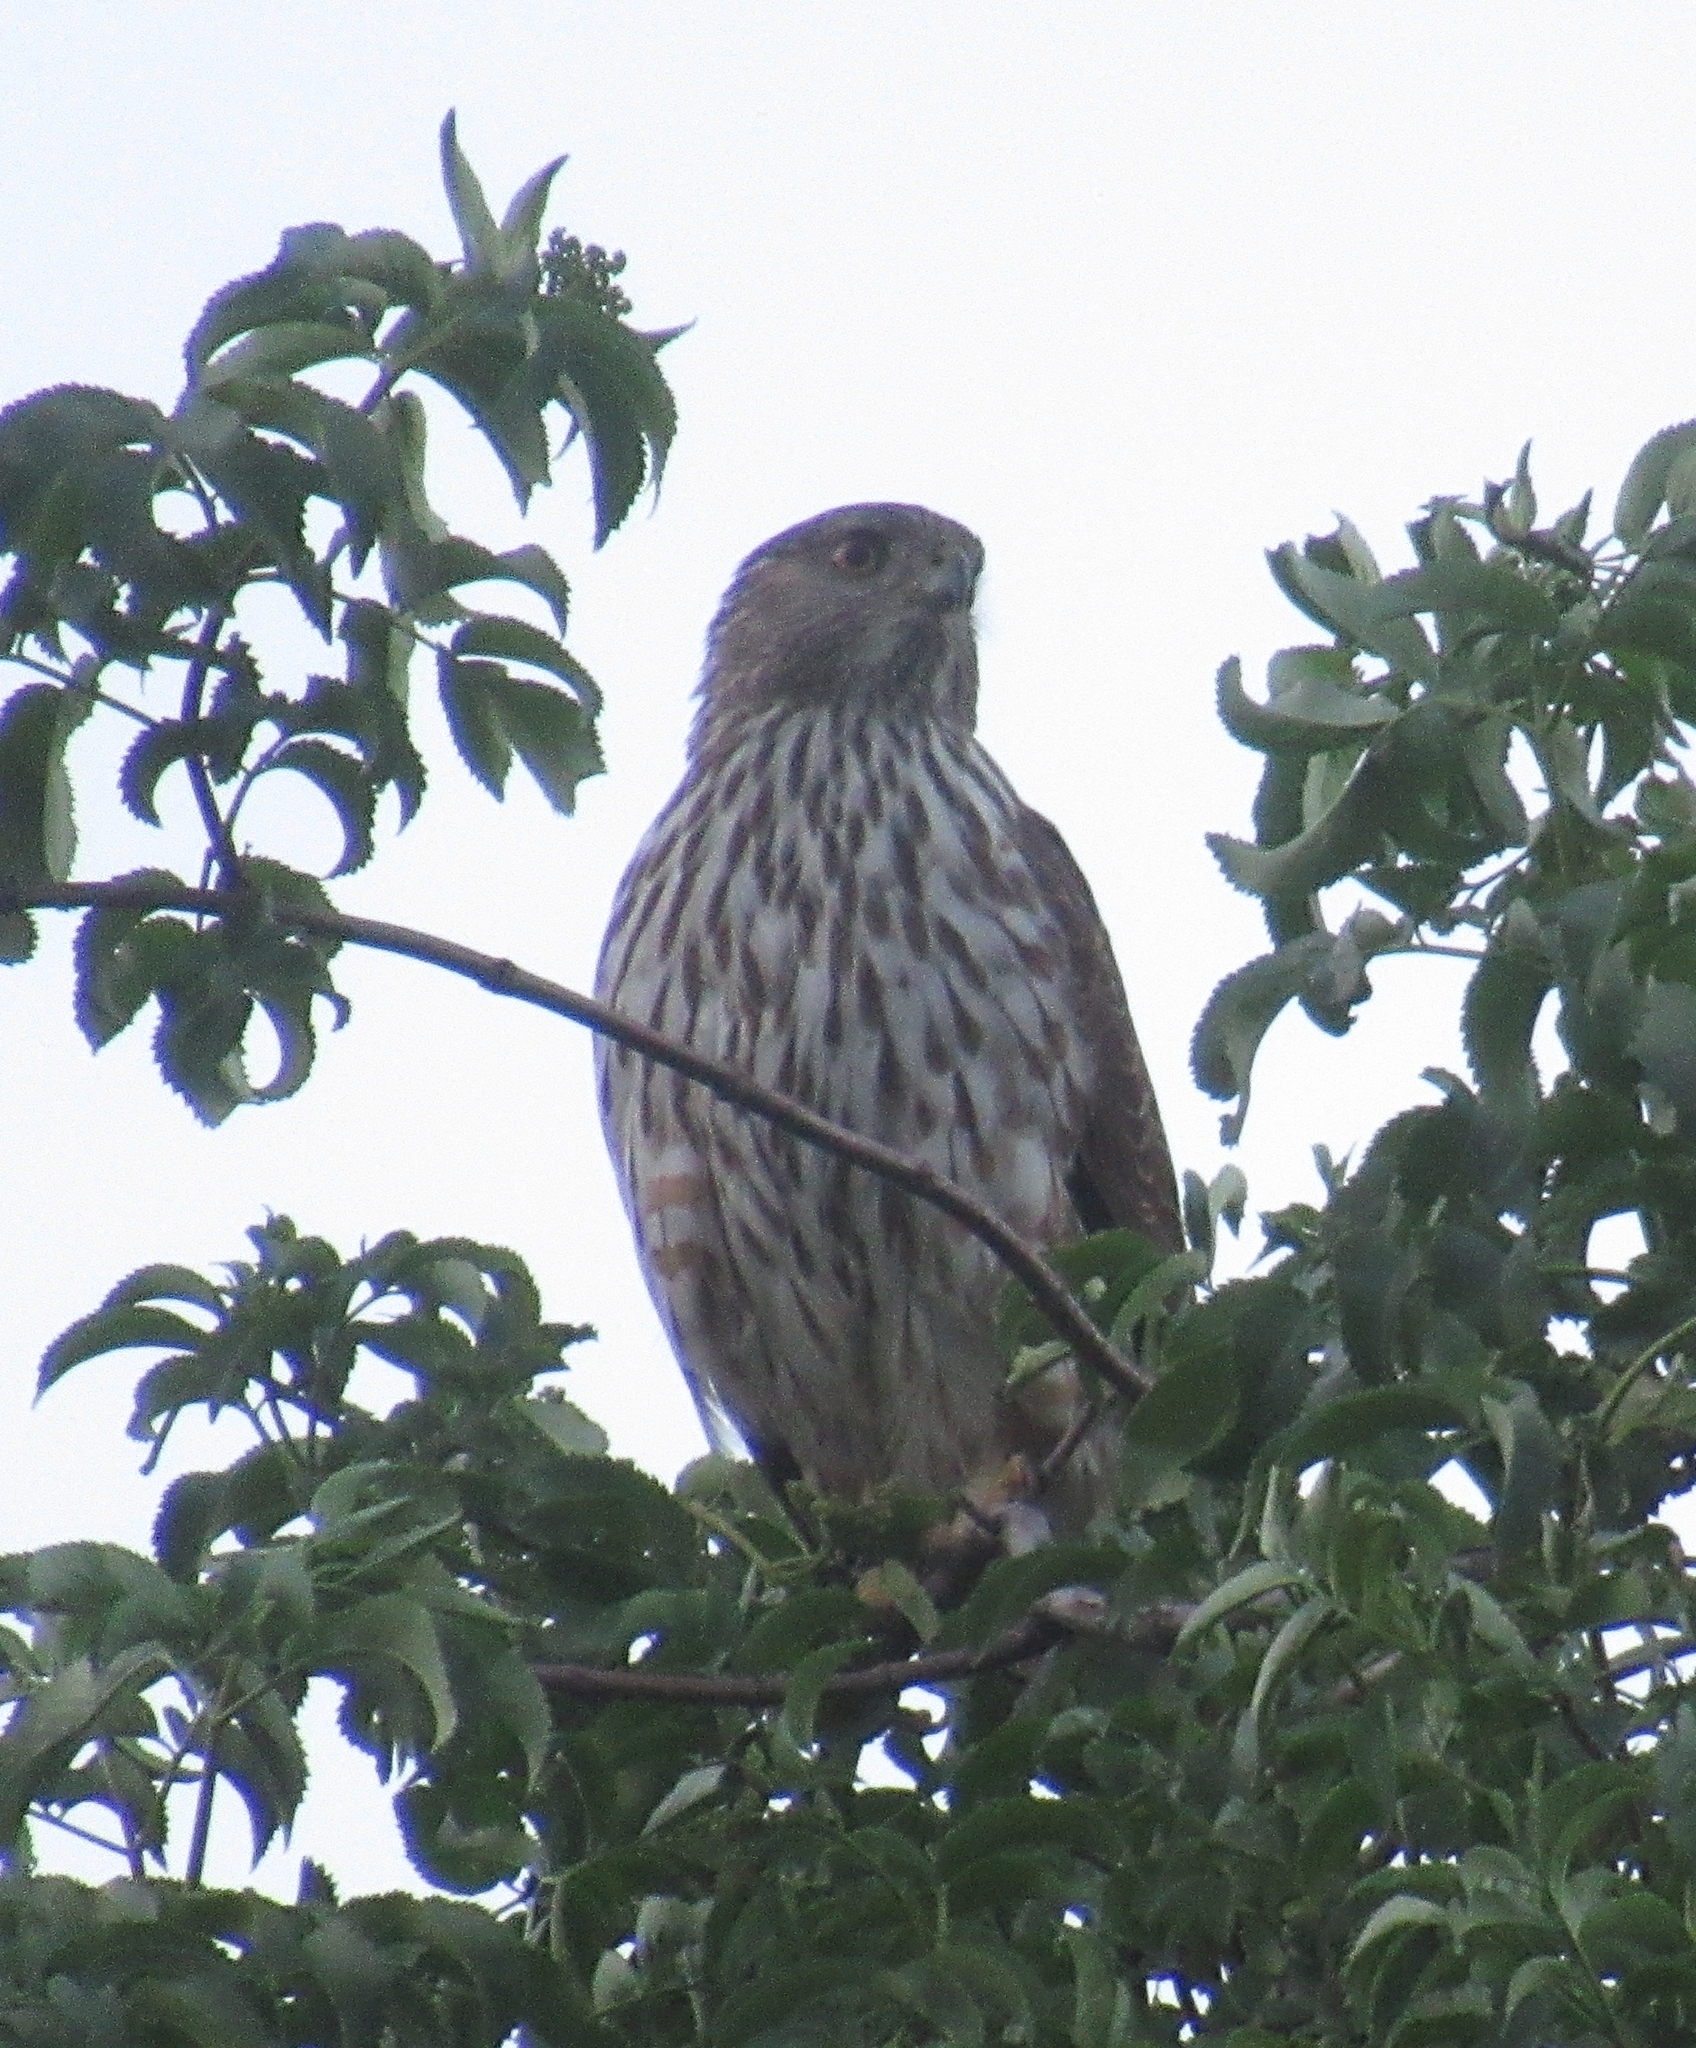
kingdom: Animalia
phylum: Chordata
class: Aves
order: Accipitriformes
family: Accipitridae
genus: Accipiter
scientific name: Accipiter cooperii
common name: Cooper's hawk
